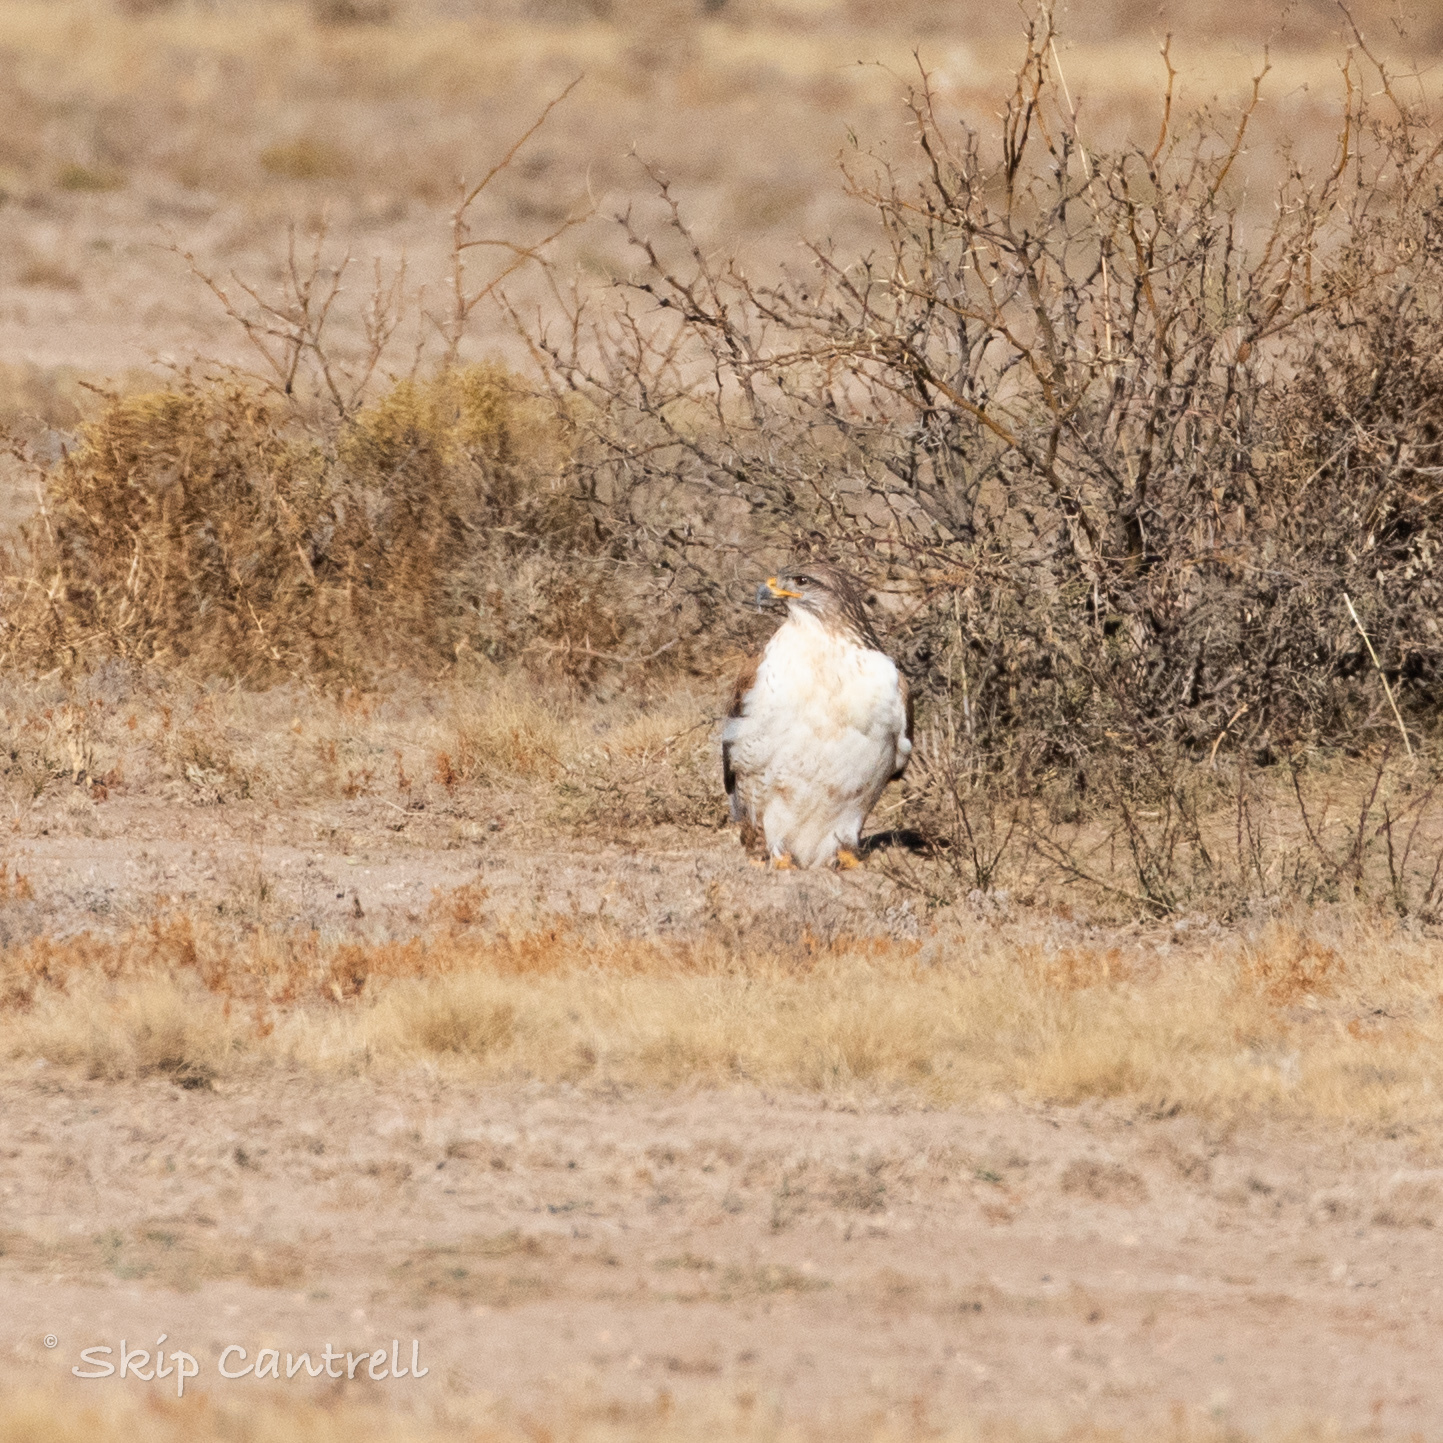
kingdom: Animalia
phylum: Chordata
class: Aves
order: Accipitriformes
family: Accipitridae
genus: Buteo
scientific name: Buteo regalis
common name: Ferruginous hawk
